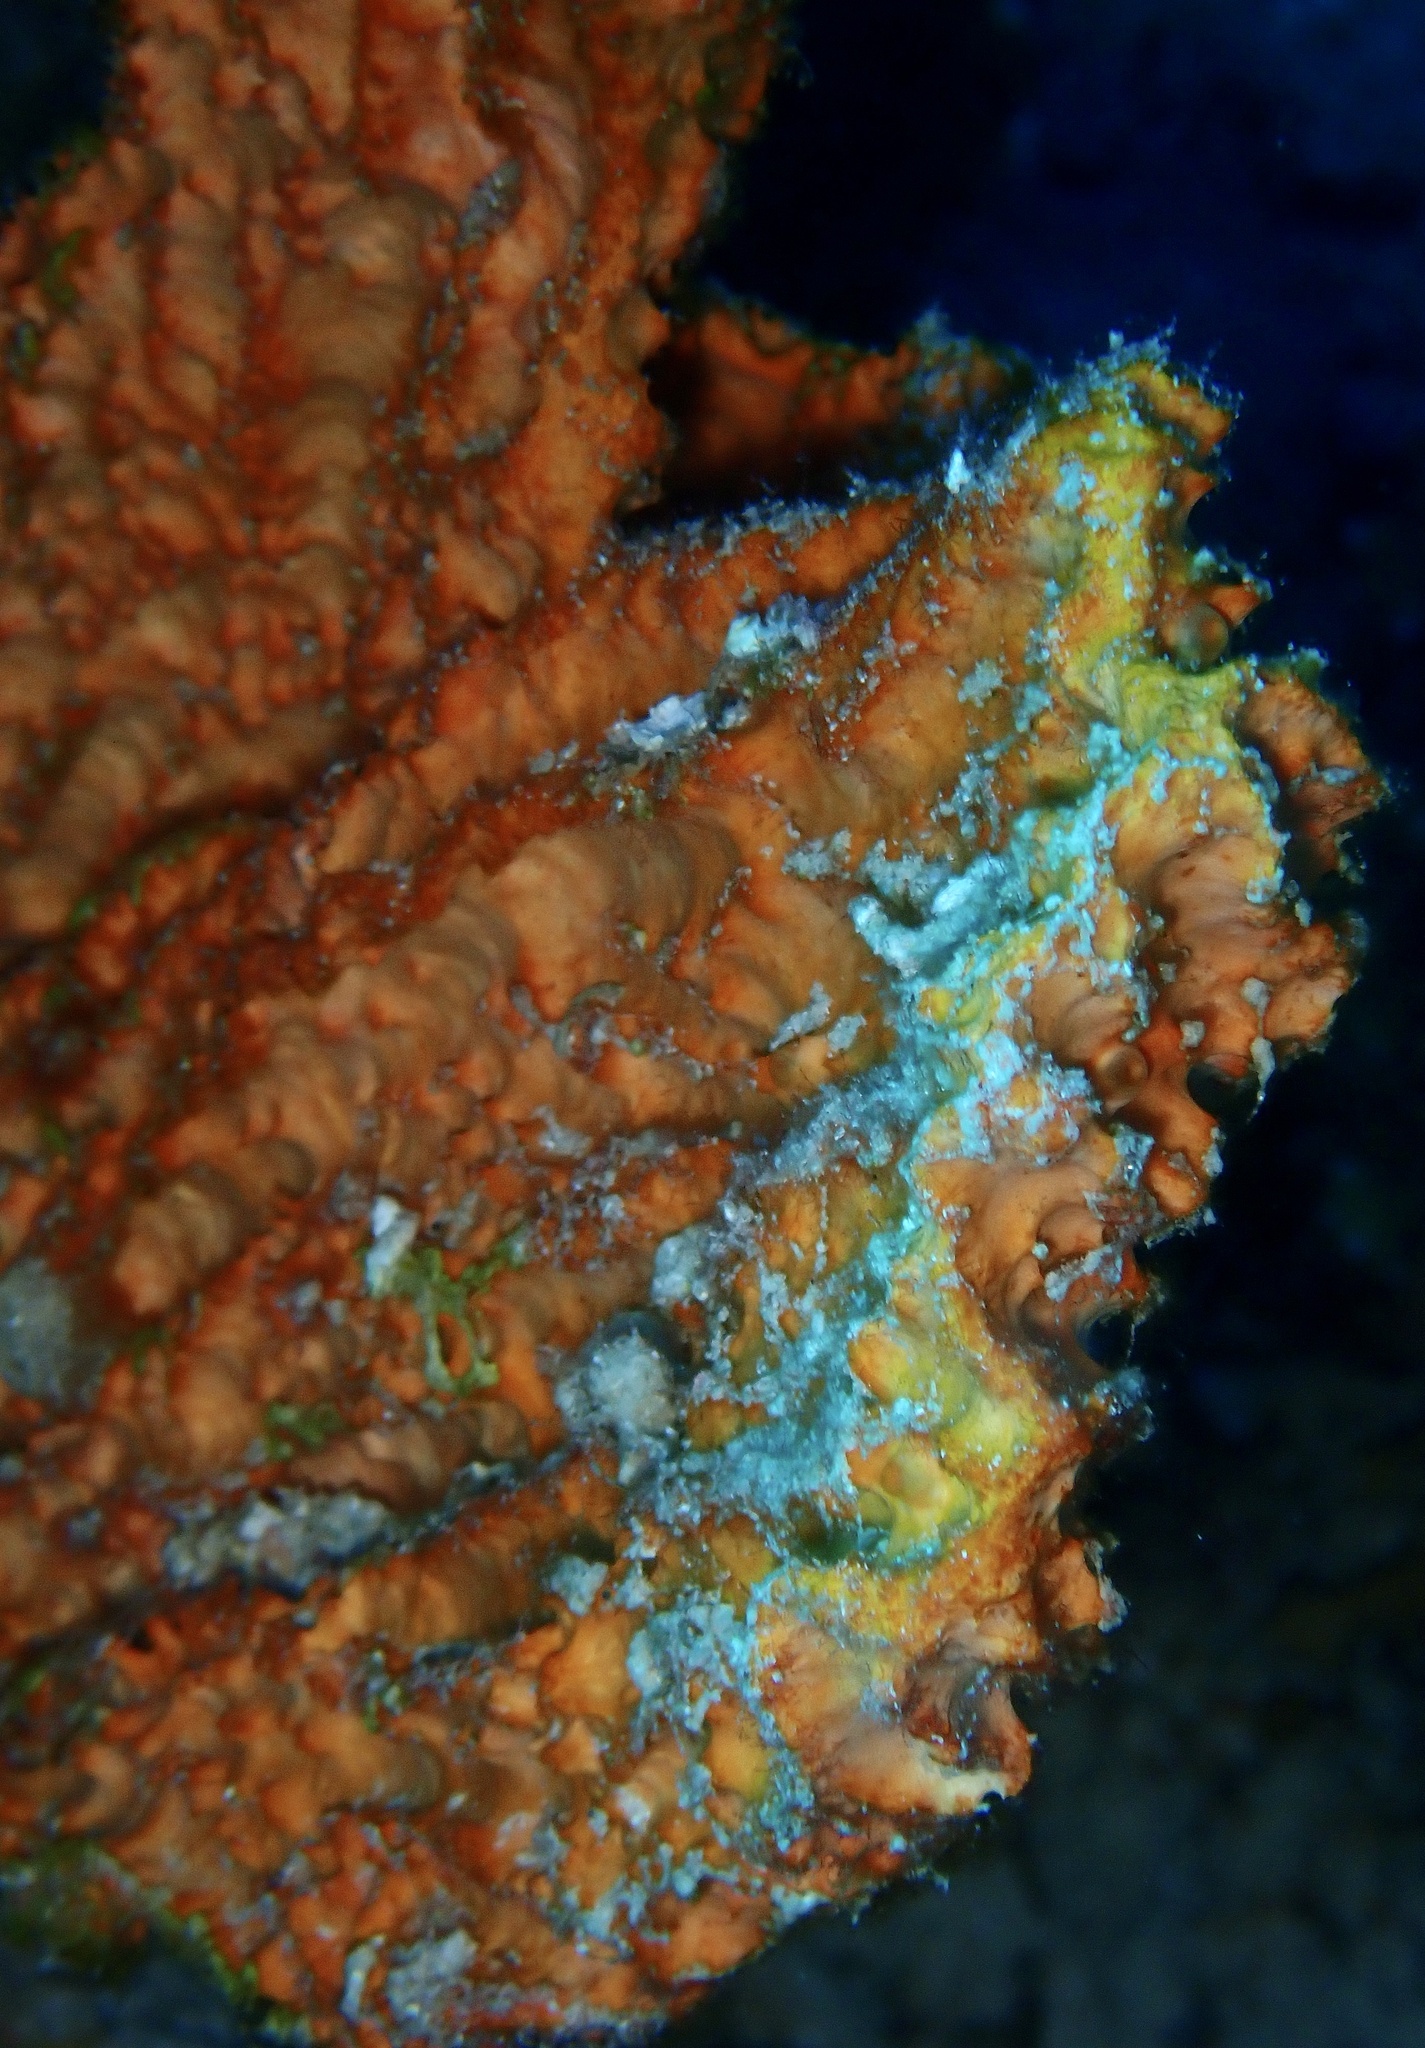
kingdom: Animalia
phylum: Porifera
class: Demospongiae
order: Scopalinida
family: Scopalinidae
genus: Stylissa
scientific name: Stylissa carteri
